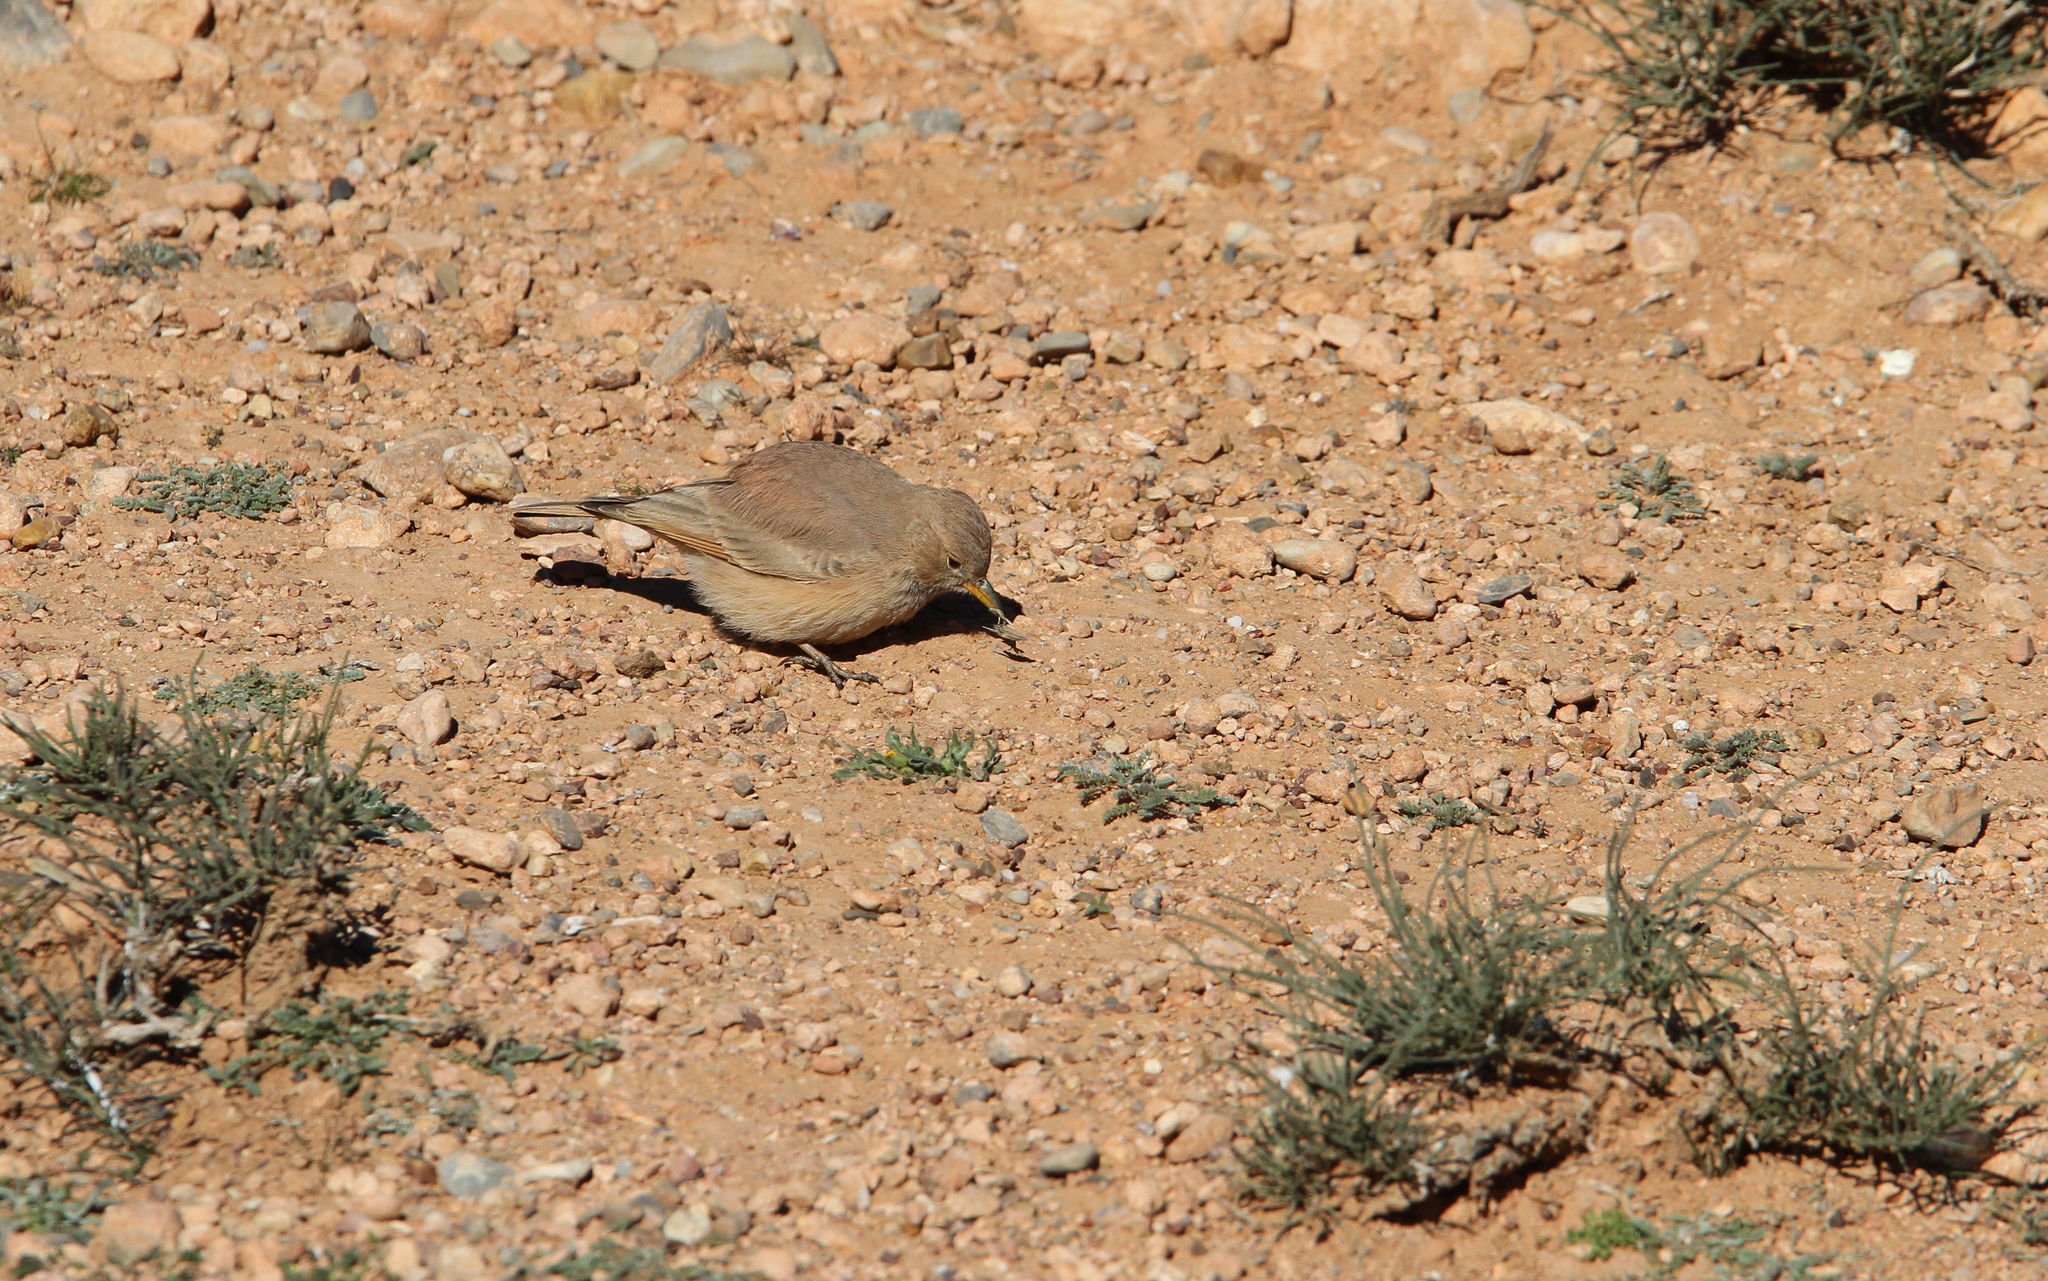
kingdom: Animalia
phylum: Chordata
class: Aves
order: Passeriformes
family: Alaudidae
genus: Ammomanes
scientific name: Ammomanes deserti
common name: Desert lark
